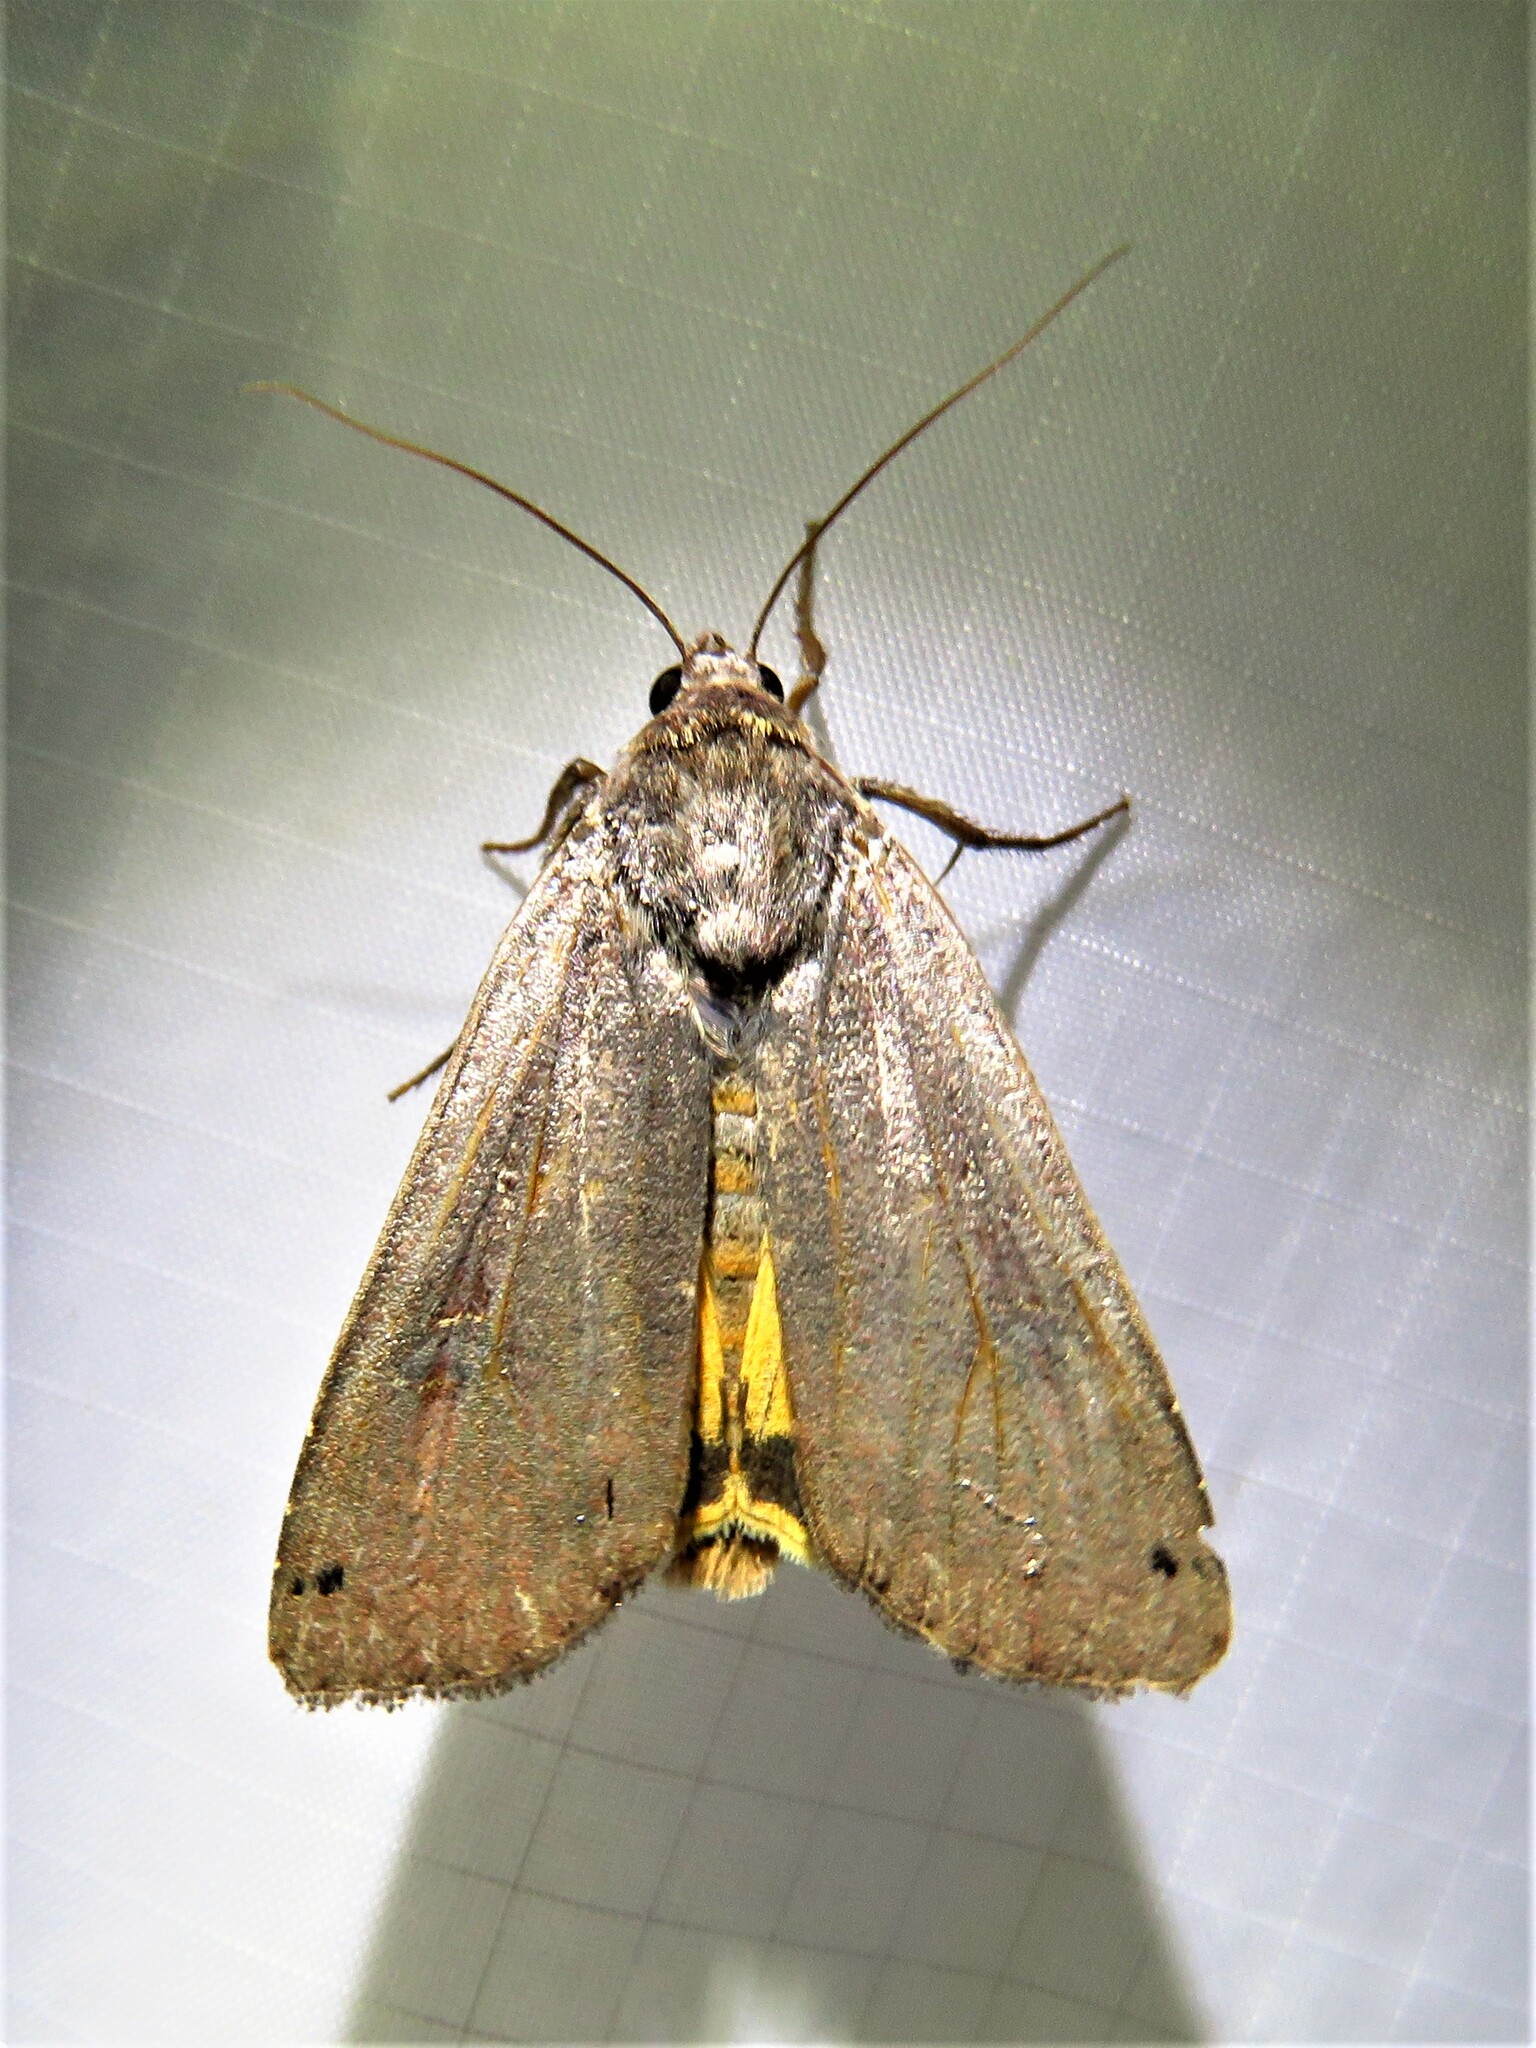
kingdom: Animalia
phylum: Arthropoda
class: Insecta
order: Lepidoptera
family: Noctuidae
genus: Noctua
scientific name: Noctua pronuba
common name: Large yellow underwing
